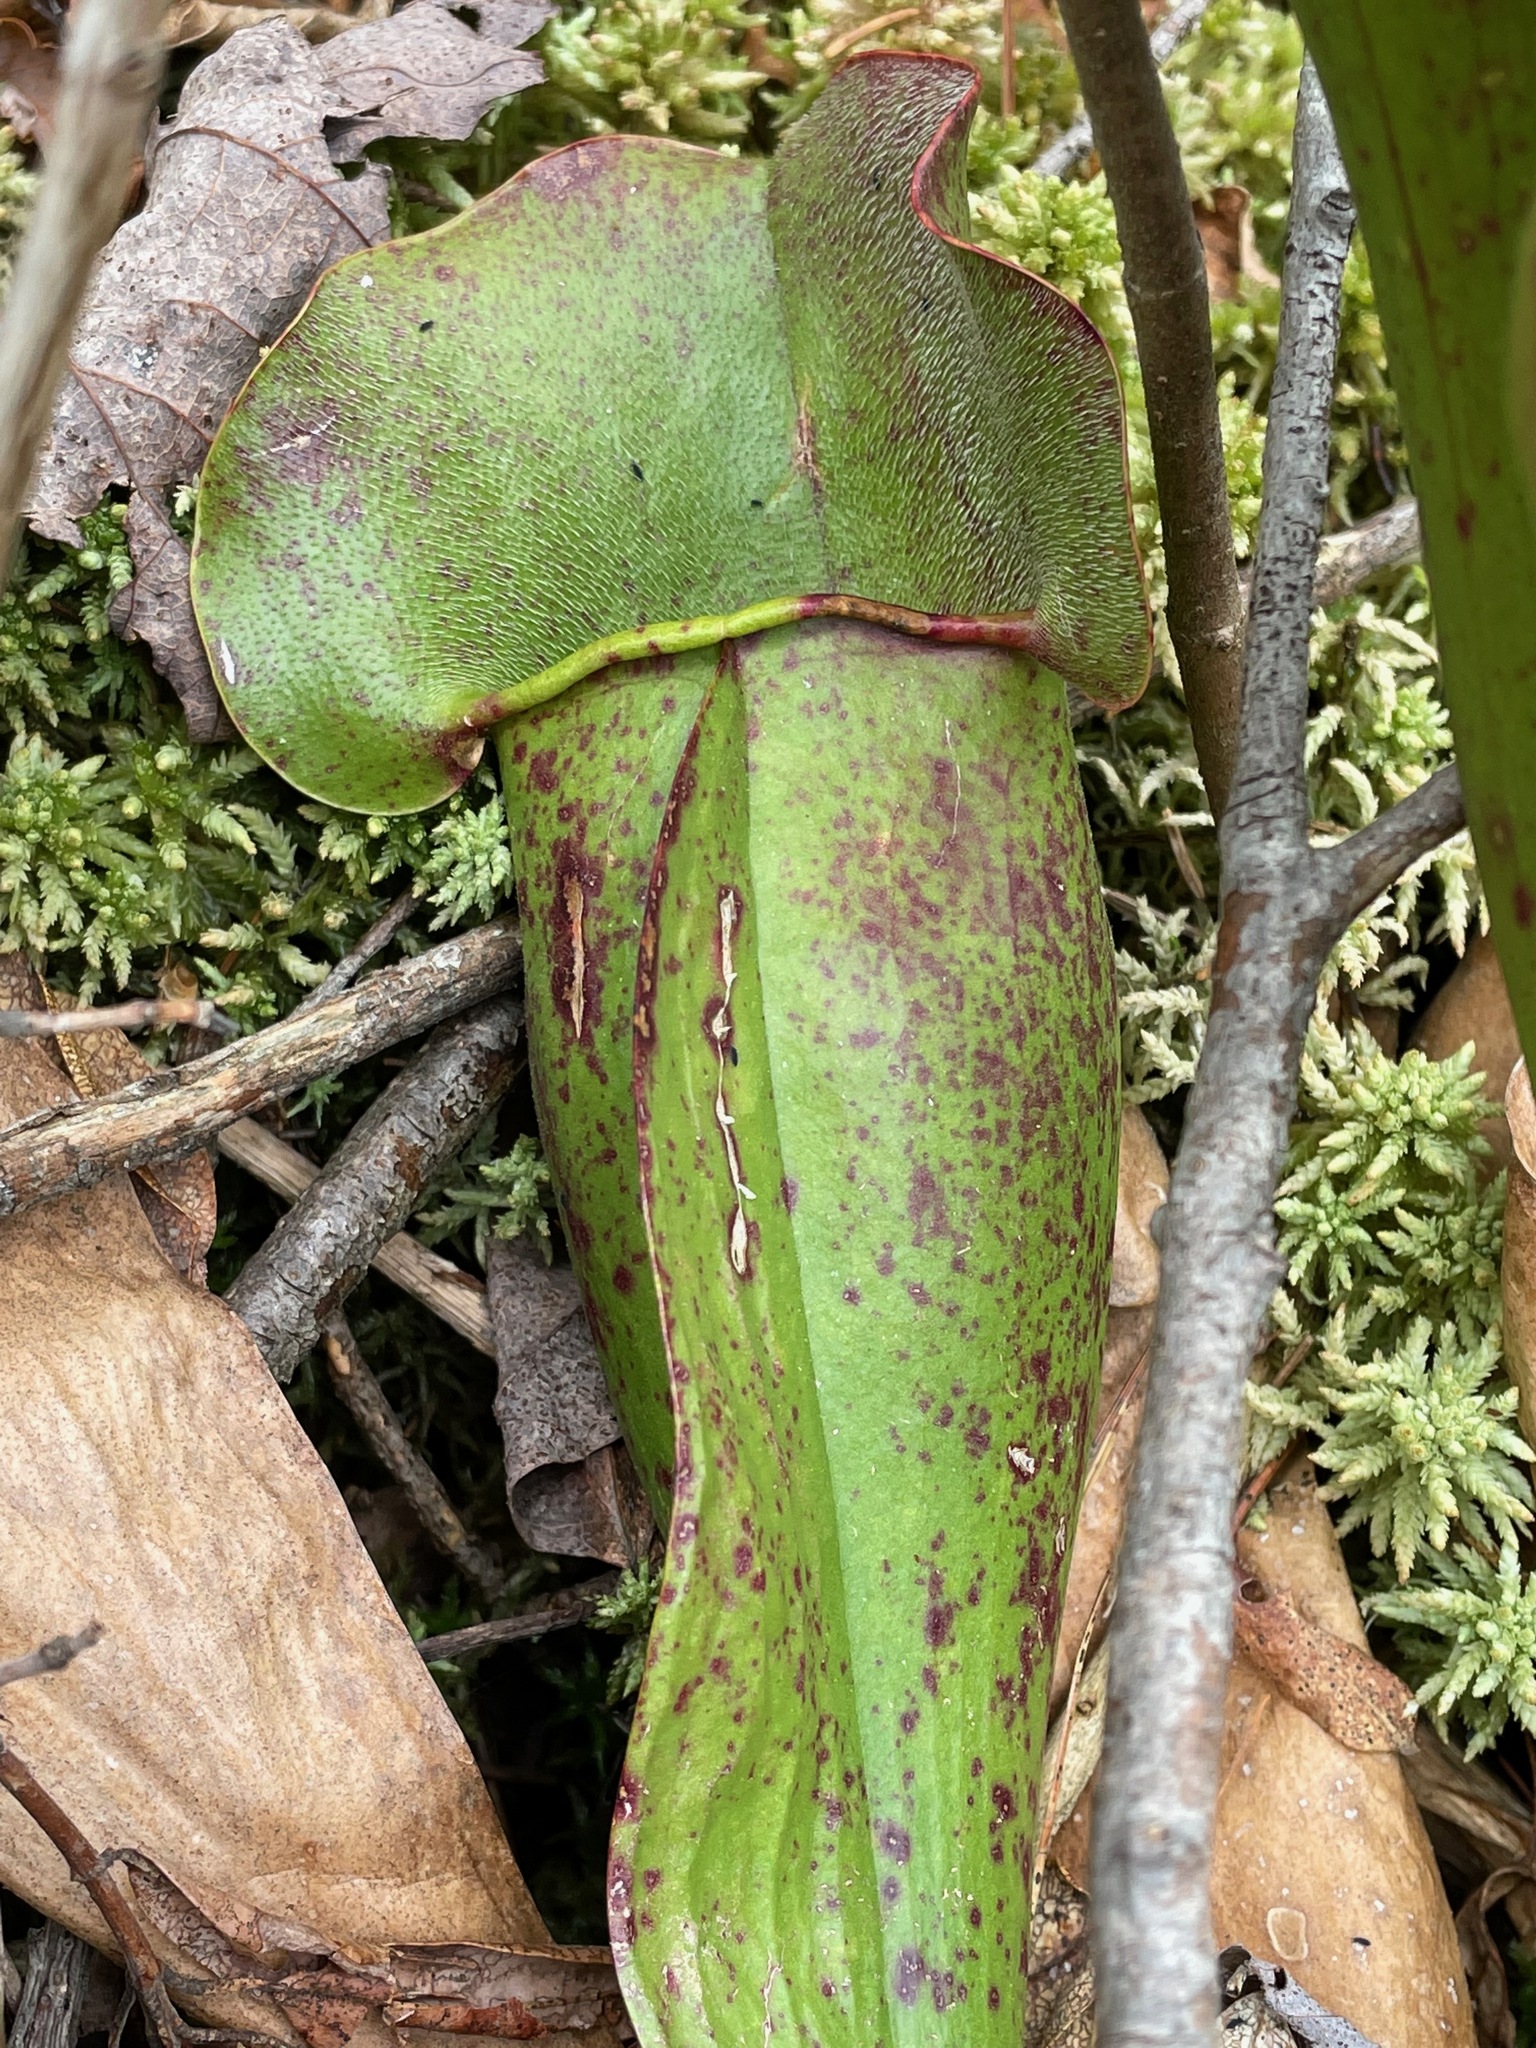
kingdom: Plantae
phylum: Tracheophyta
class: Magnoliopsida
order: Ericales
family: Sarraceniaceae
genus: Sarracenia
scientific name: Sarracenia purpurea
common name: Pitcherplant
